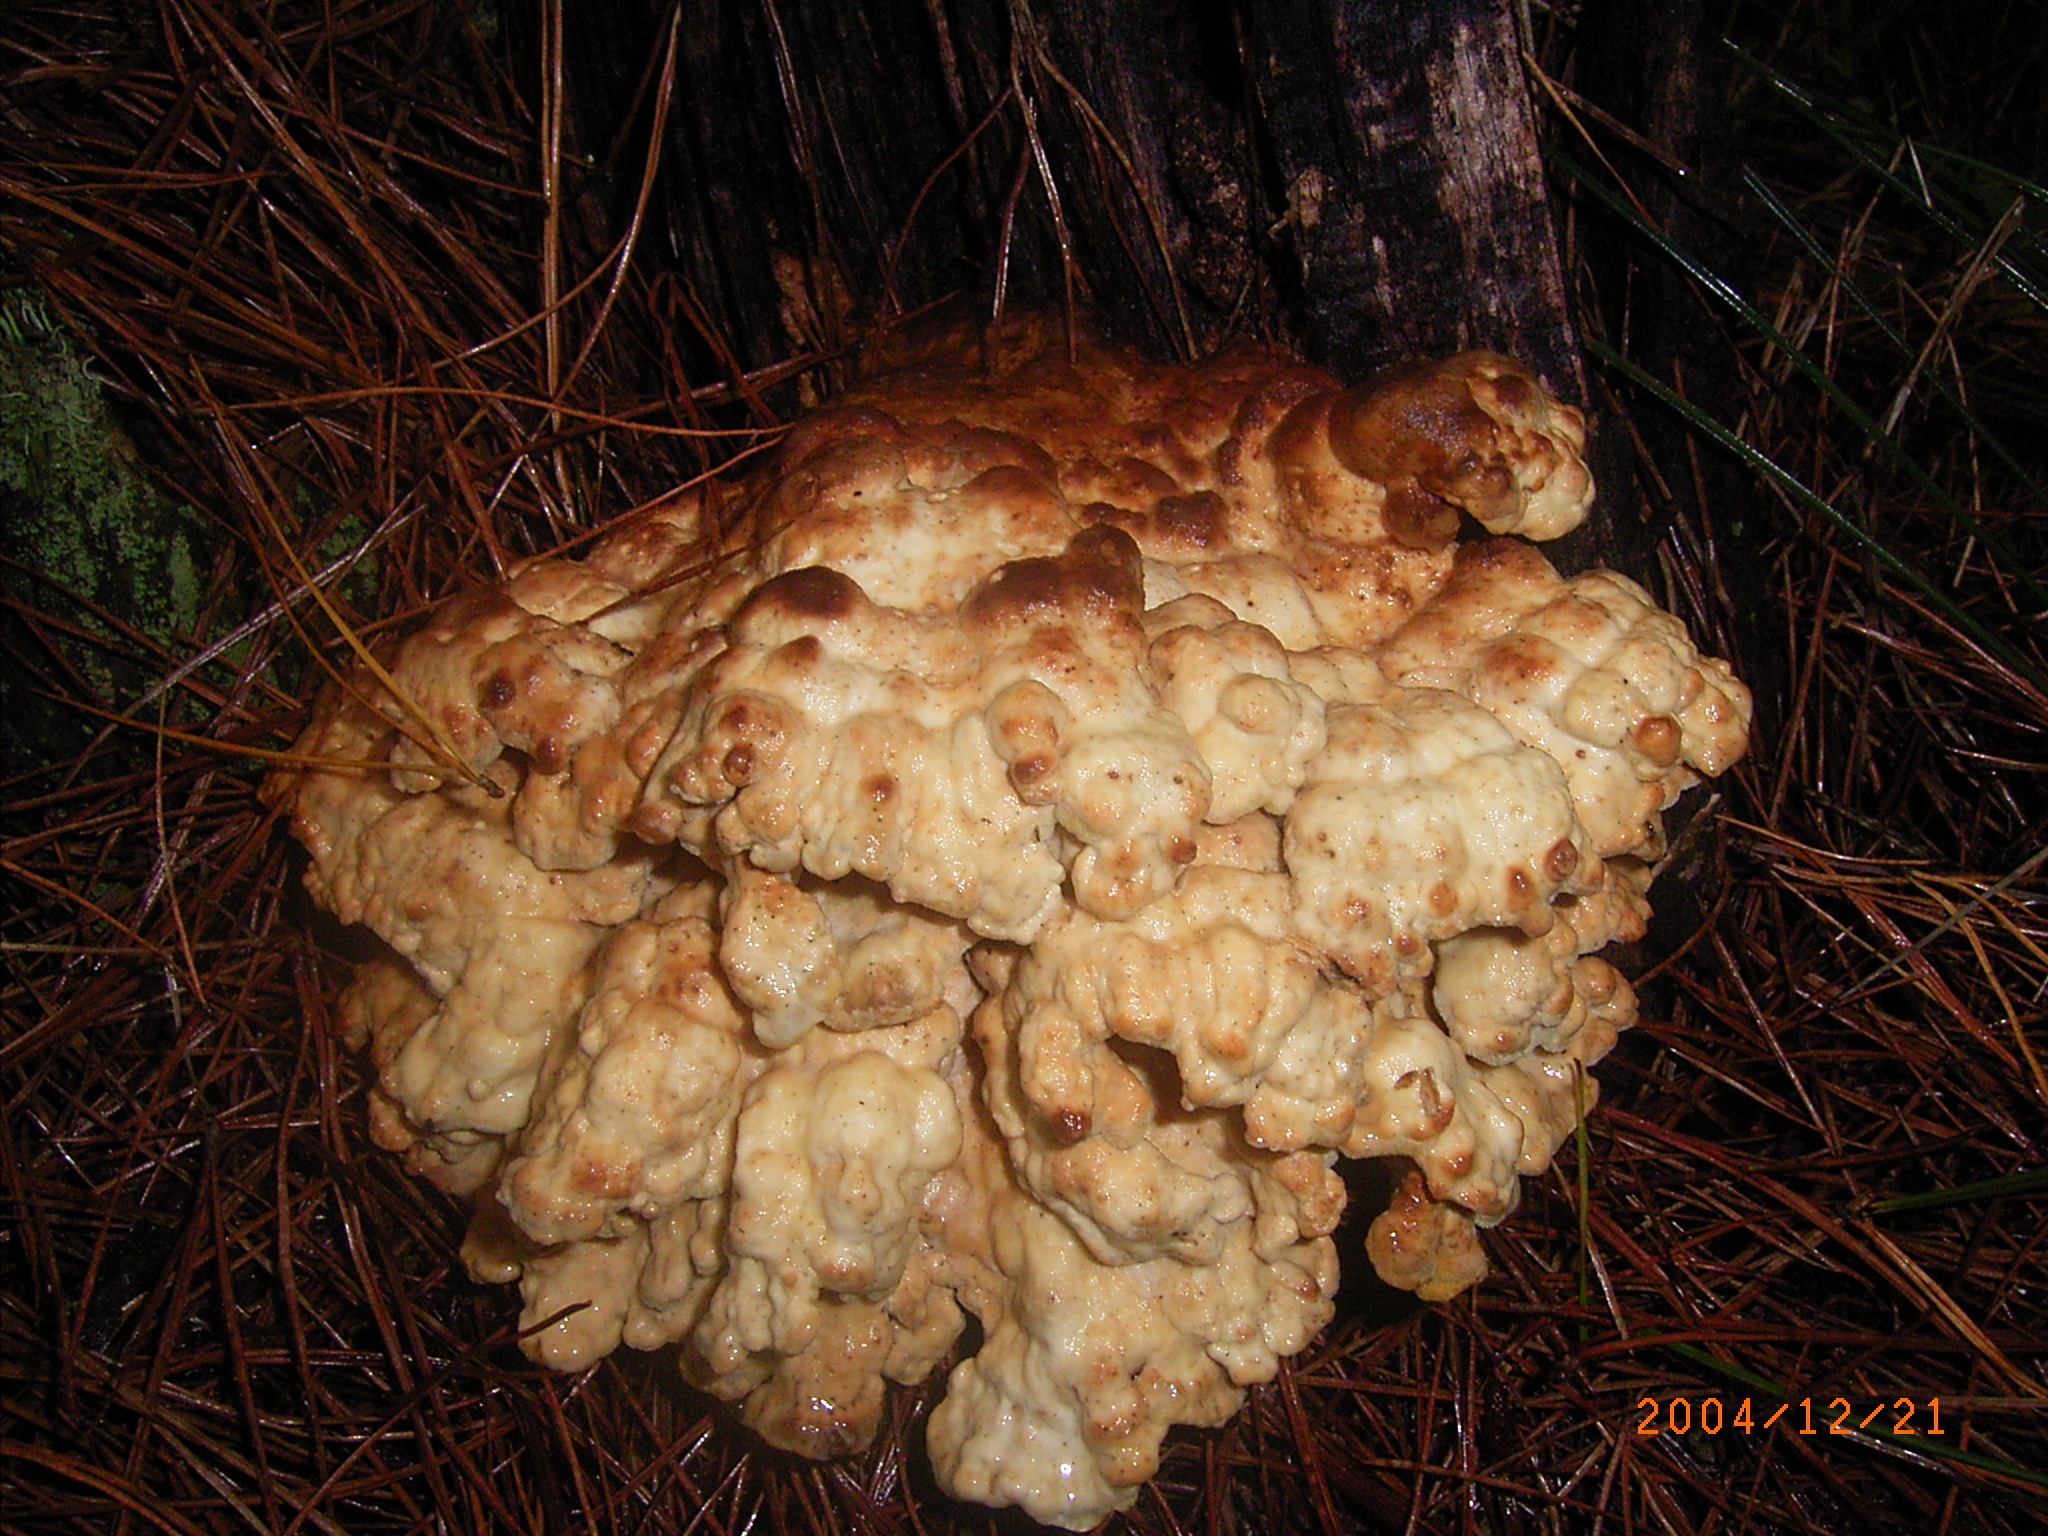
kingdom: Fungi
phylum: Basidiomycota
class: Agaricomycetes
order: Polyporales
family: Laetiporaceae
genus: Laetiporus
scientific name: Laetiporus sulphureus
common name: Chicken of the woods
